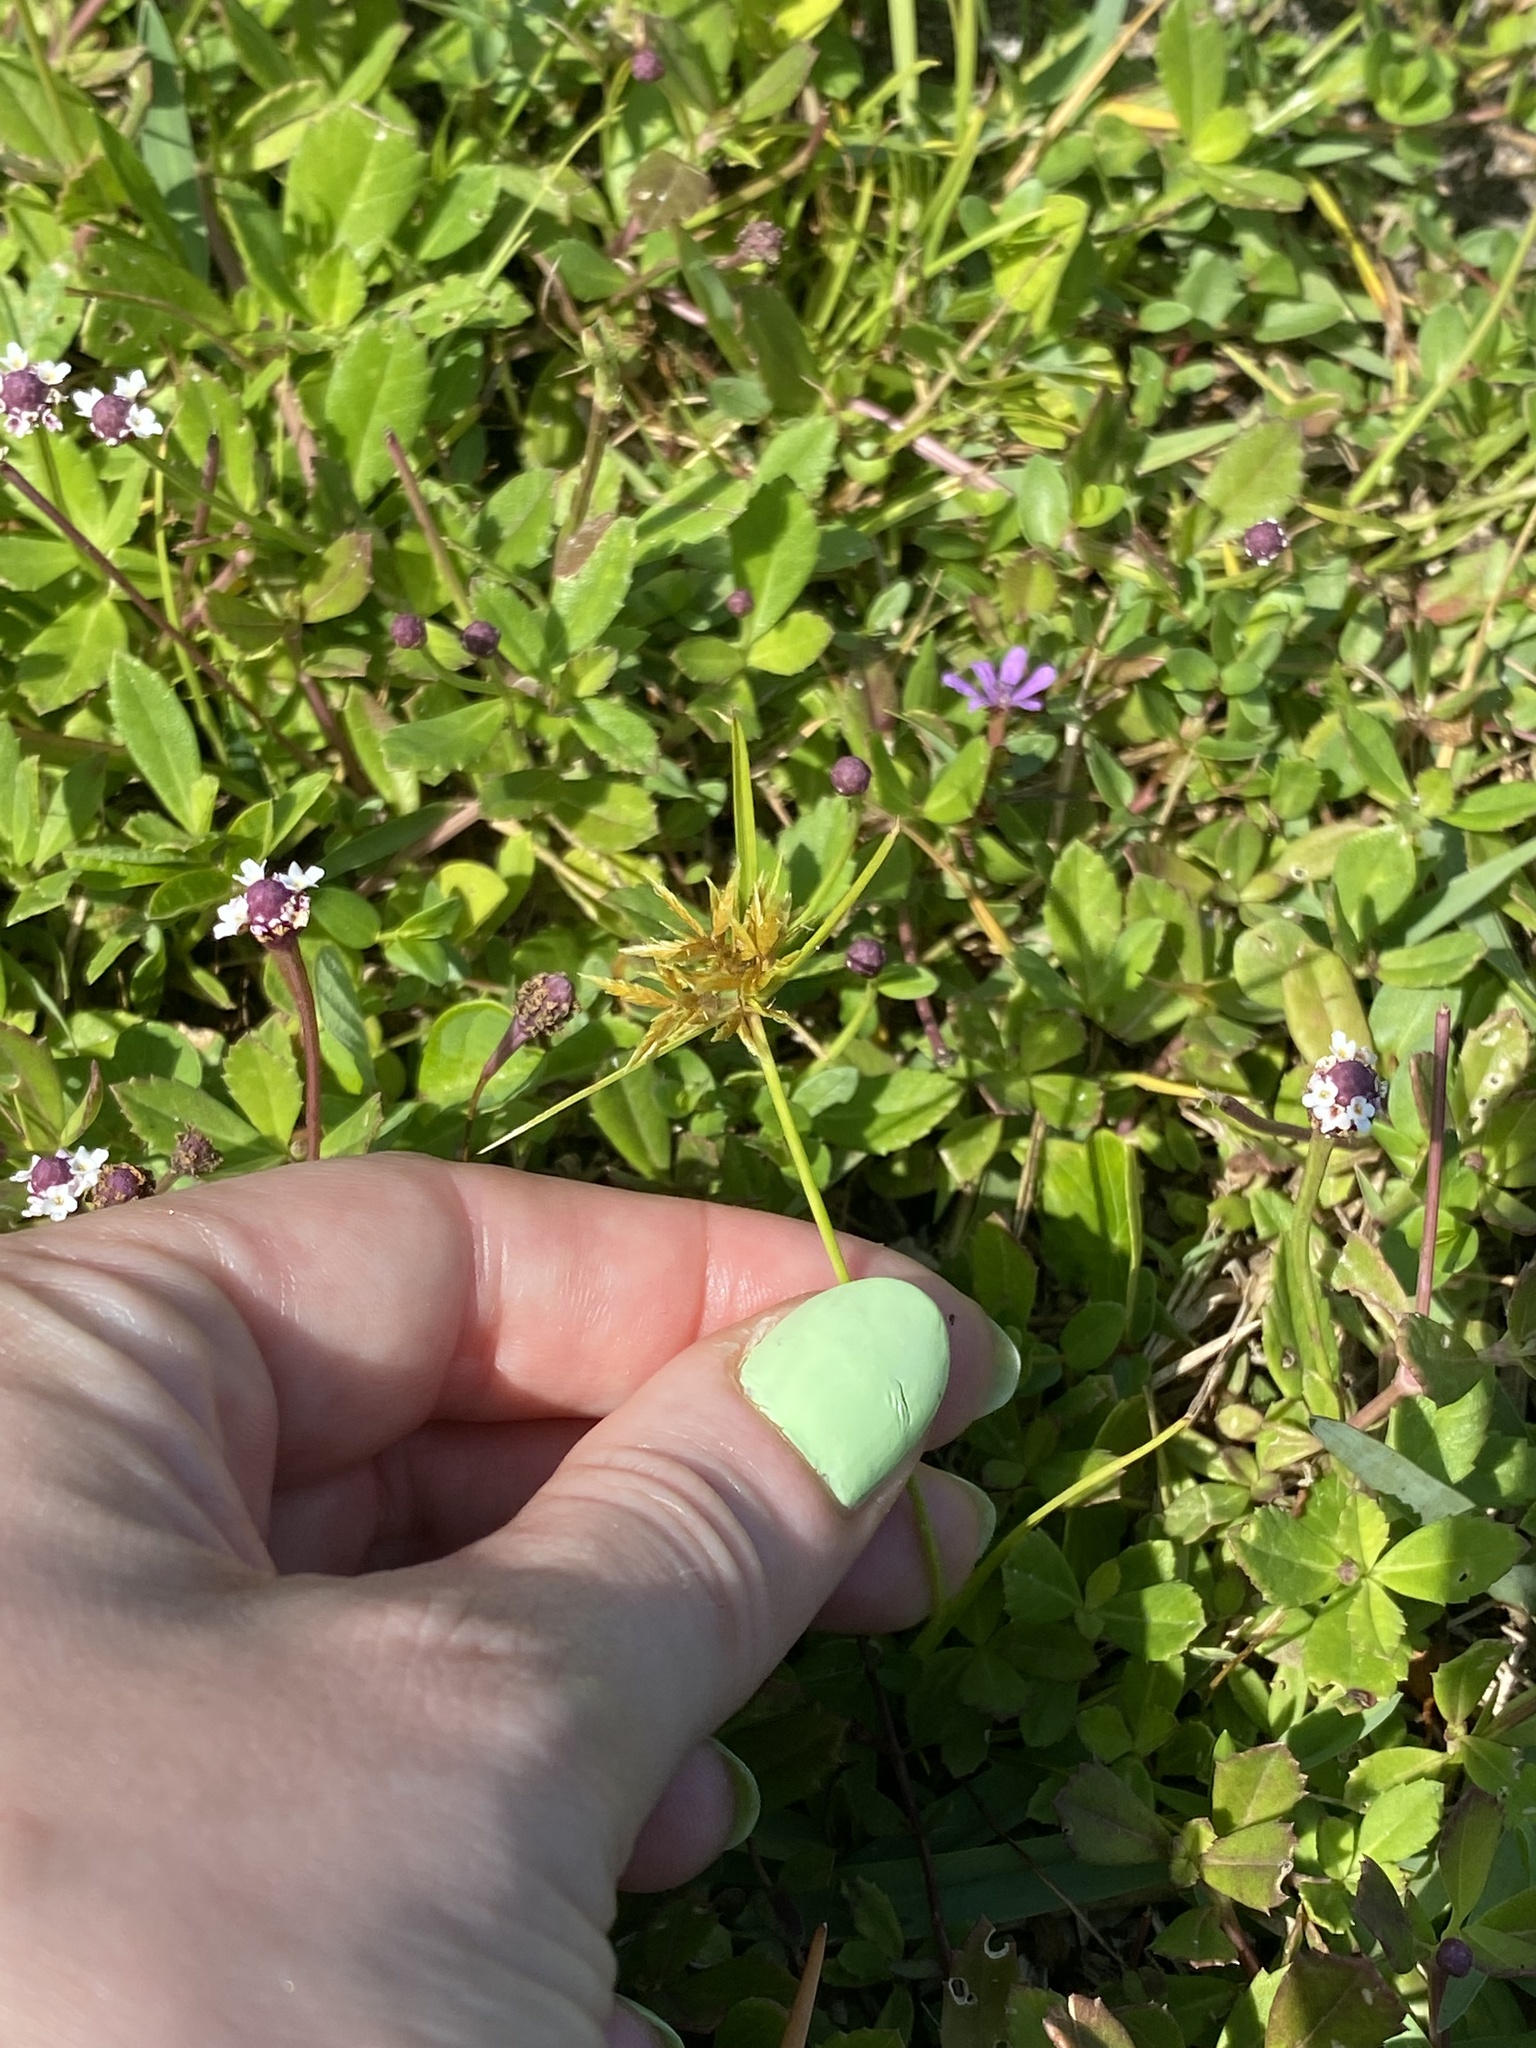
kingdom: Plantae
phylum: Tracheophyta
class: Liliopsida
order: Poales
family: Cyperaceae
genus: Cyperus
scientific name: Cyperus polystachyos
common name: Bunchy flat sedge
